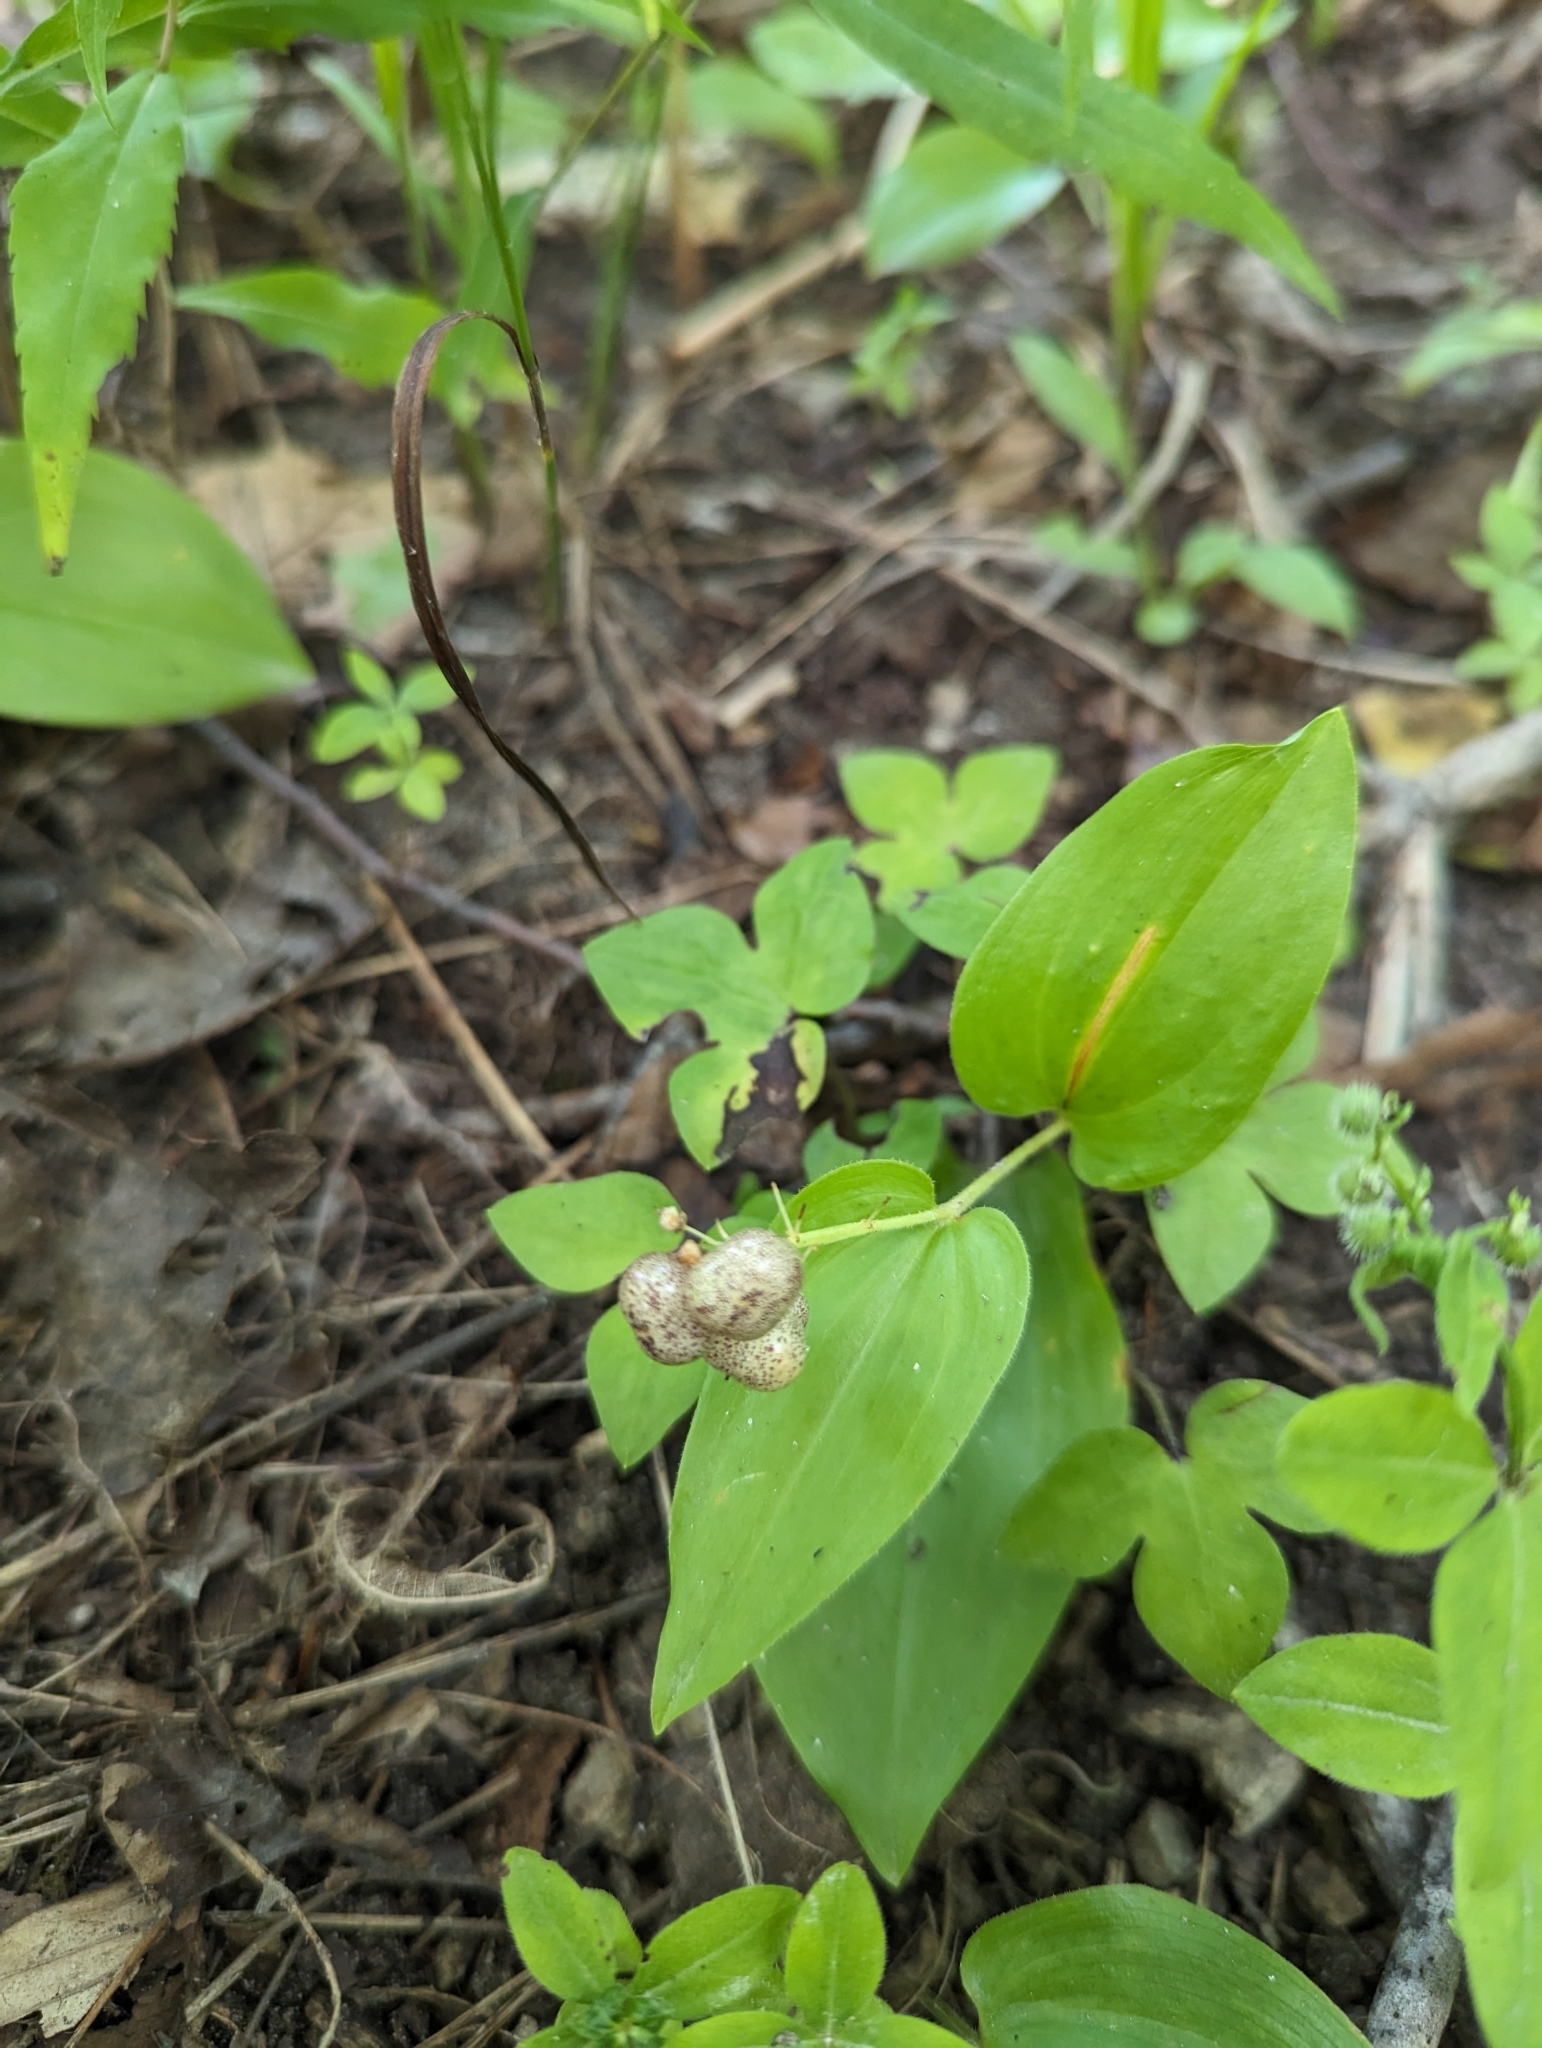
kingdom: Plantae
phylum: Tracheophyta
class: Liliopsida
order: Asparagales
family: Asparagaceae
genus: Maianthemum
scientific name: Maianthemum canadense
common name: False lily-of-the-valley
